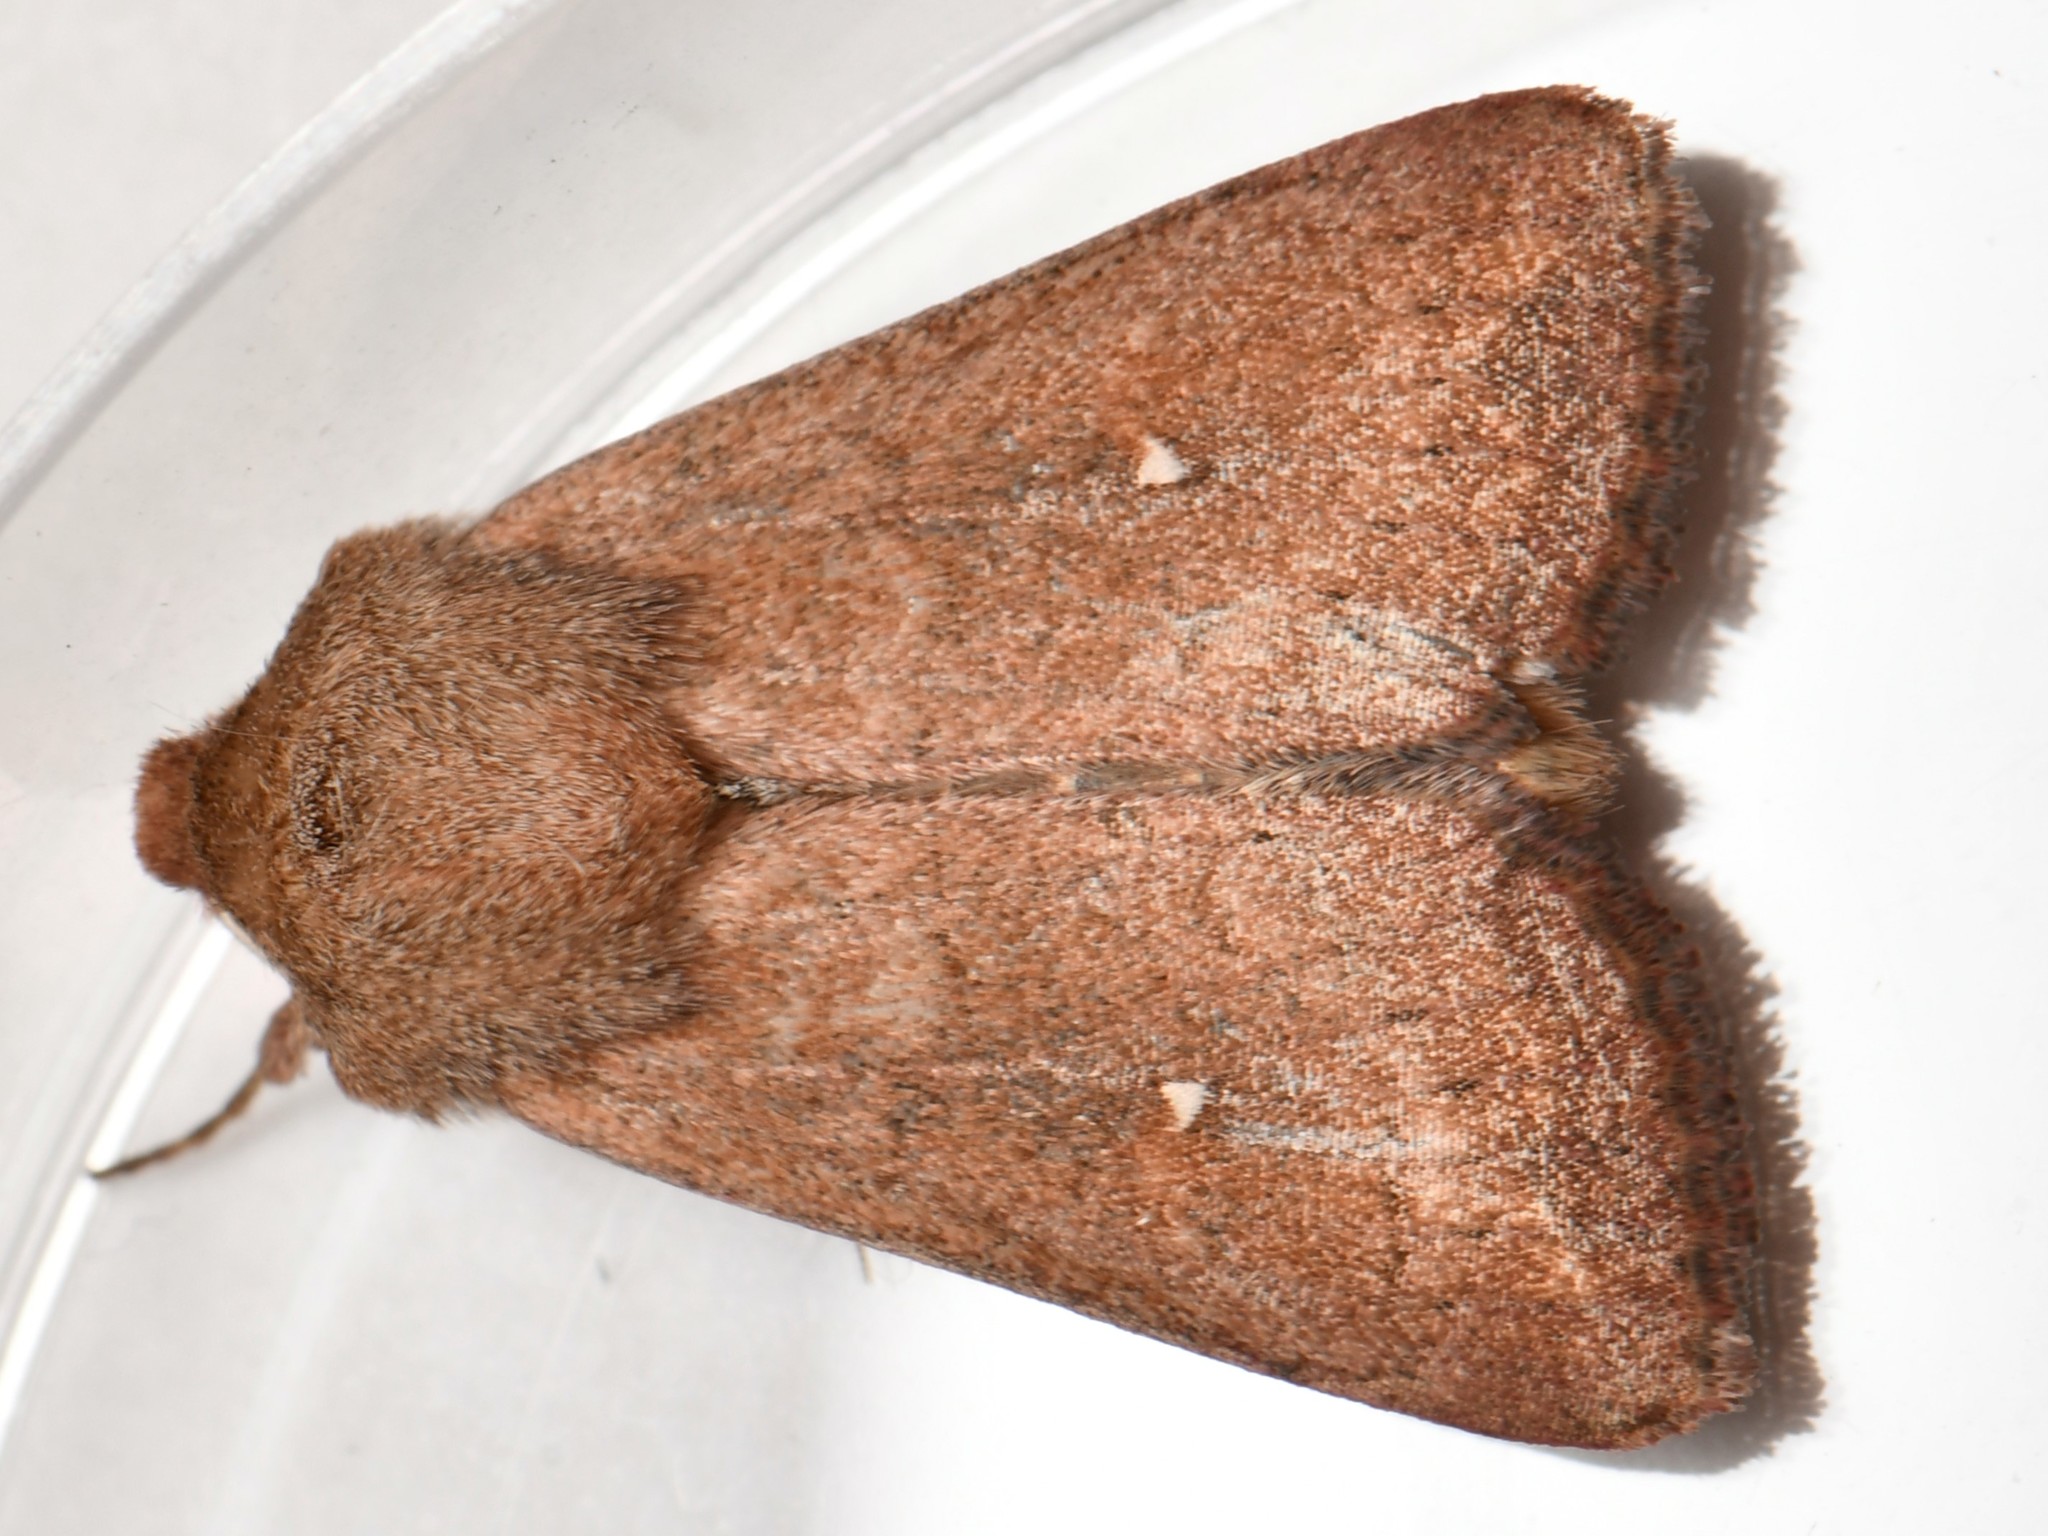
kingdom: Animalia
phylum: Arthropoda
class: Insecta
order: Lepidoptera
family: Noctuidae
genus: Mythimna
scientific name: Mythimna albipuncta
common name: White-point
